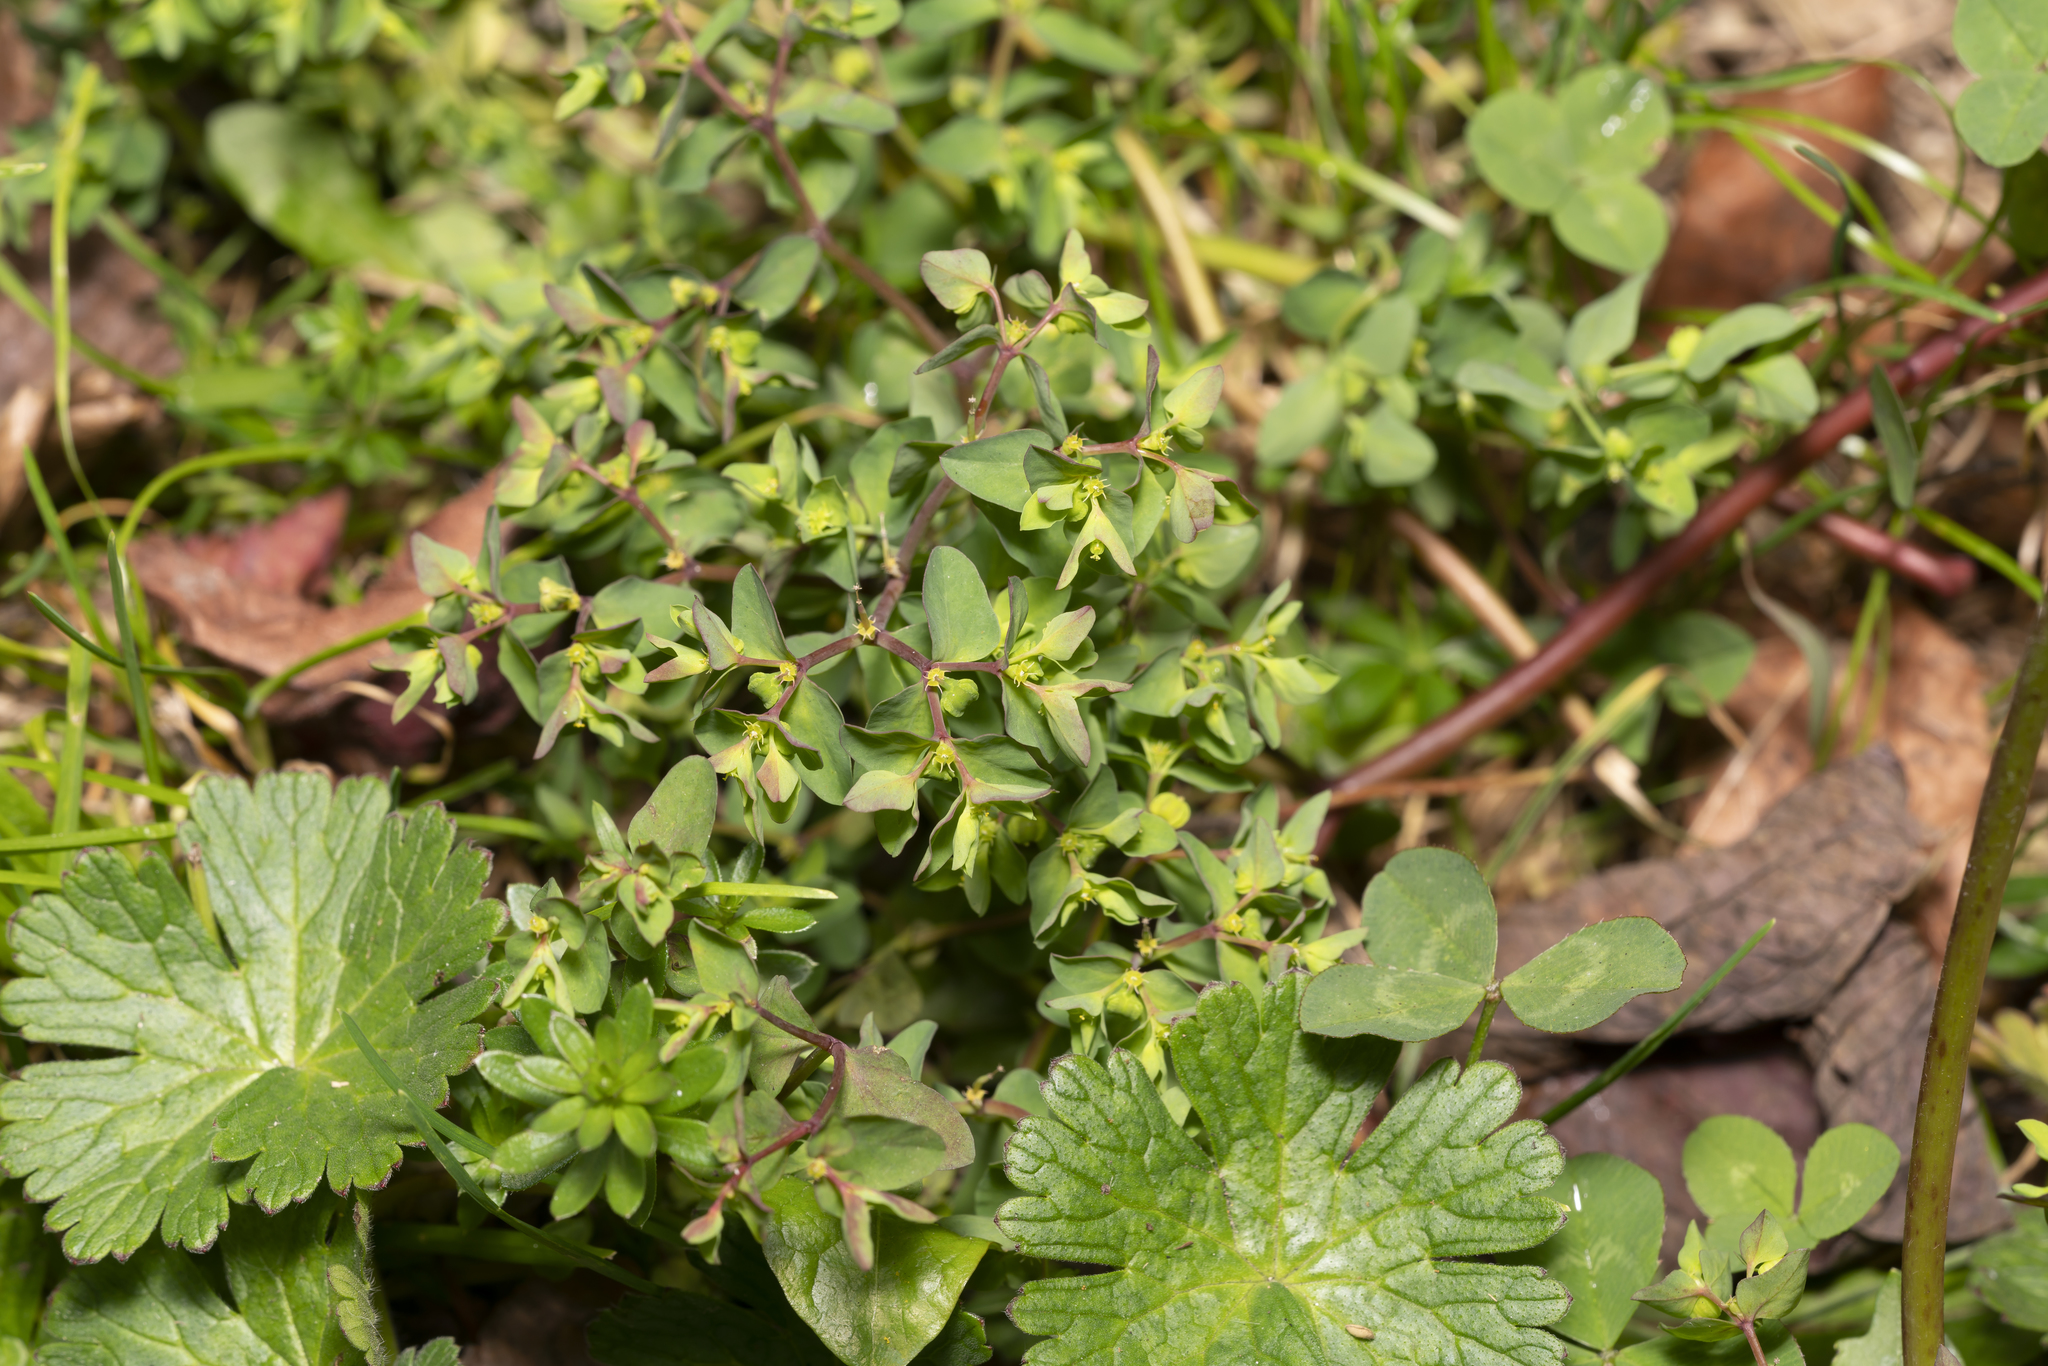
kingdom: Plantae
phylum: Tracheophyta
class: Magnoliopsida
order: Malpighiales
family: Euphorbiaceae
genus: Euphorbia
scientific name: Euphorbia peplus
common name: Petty spurge
